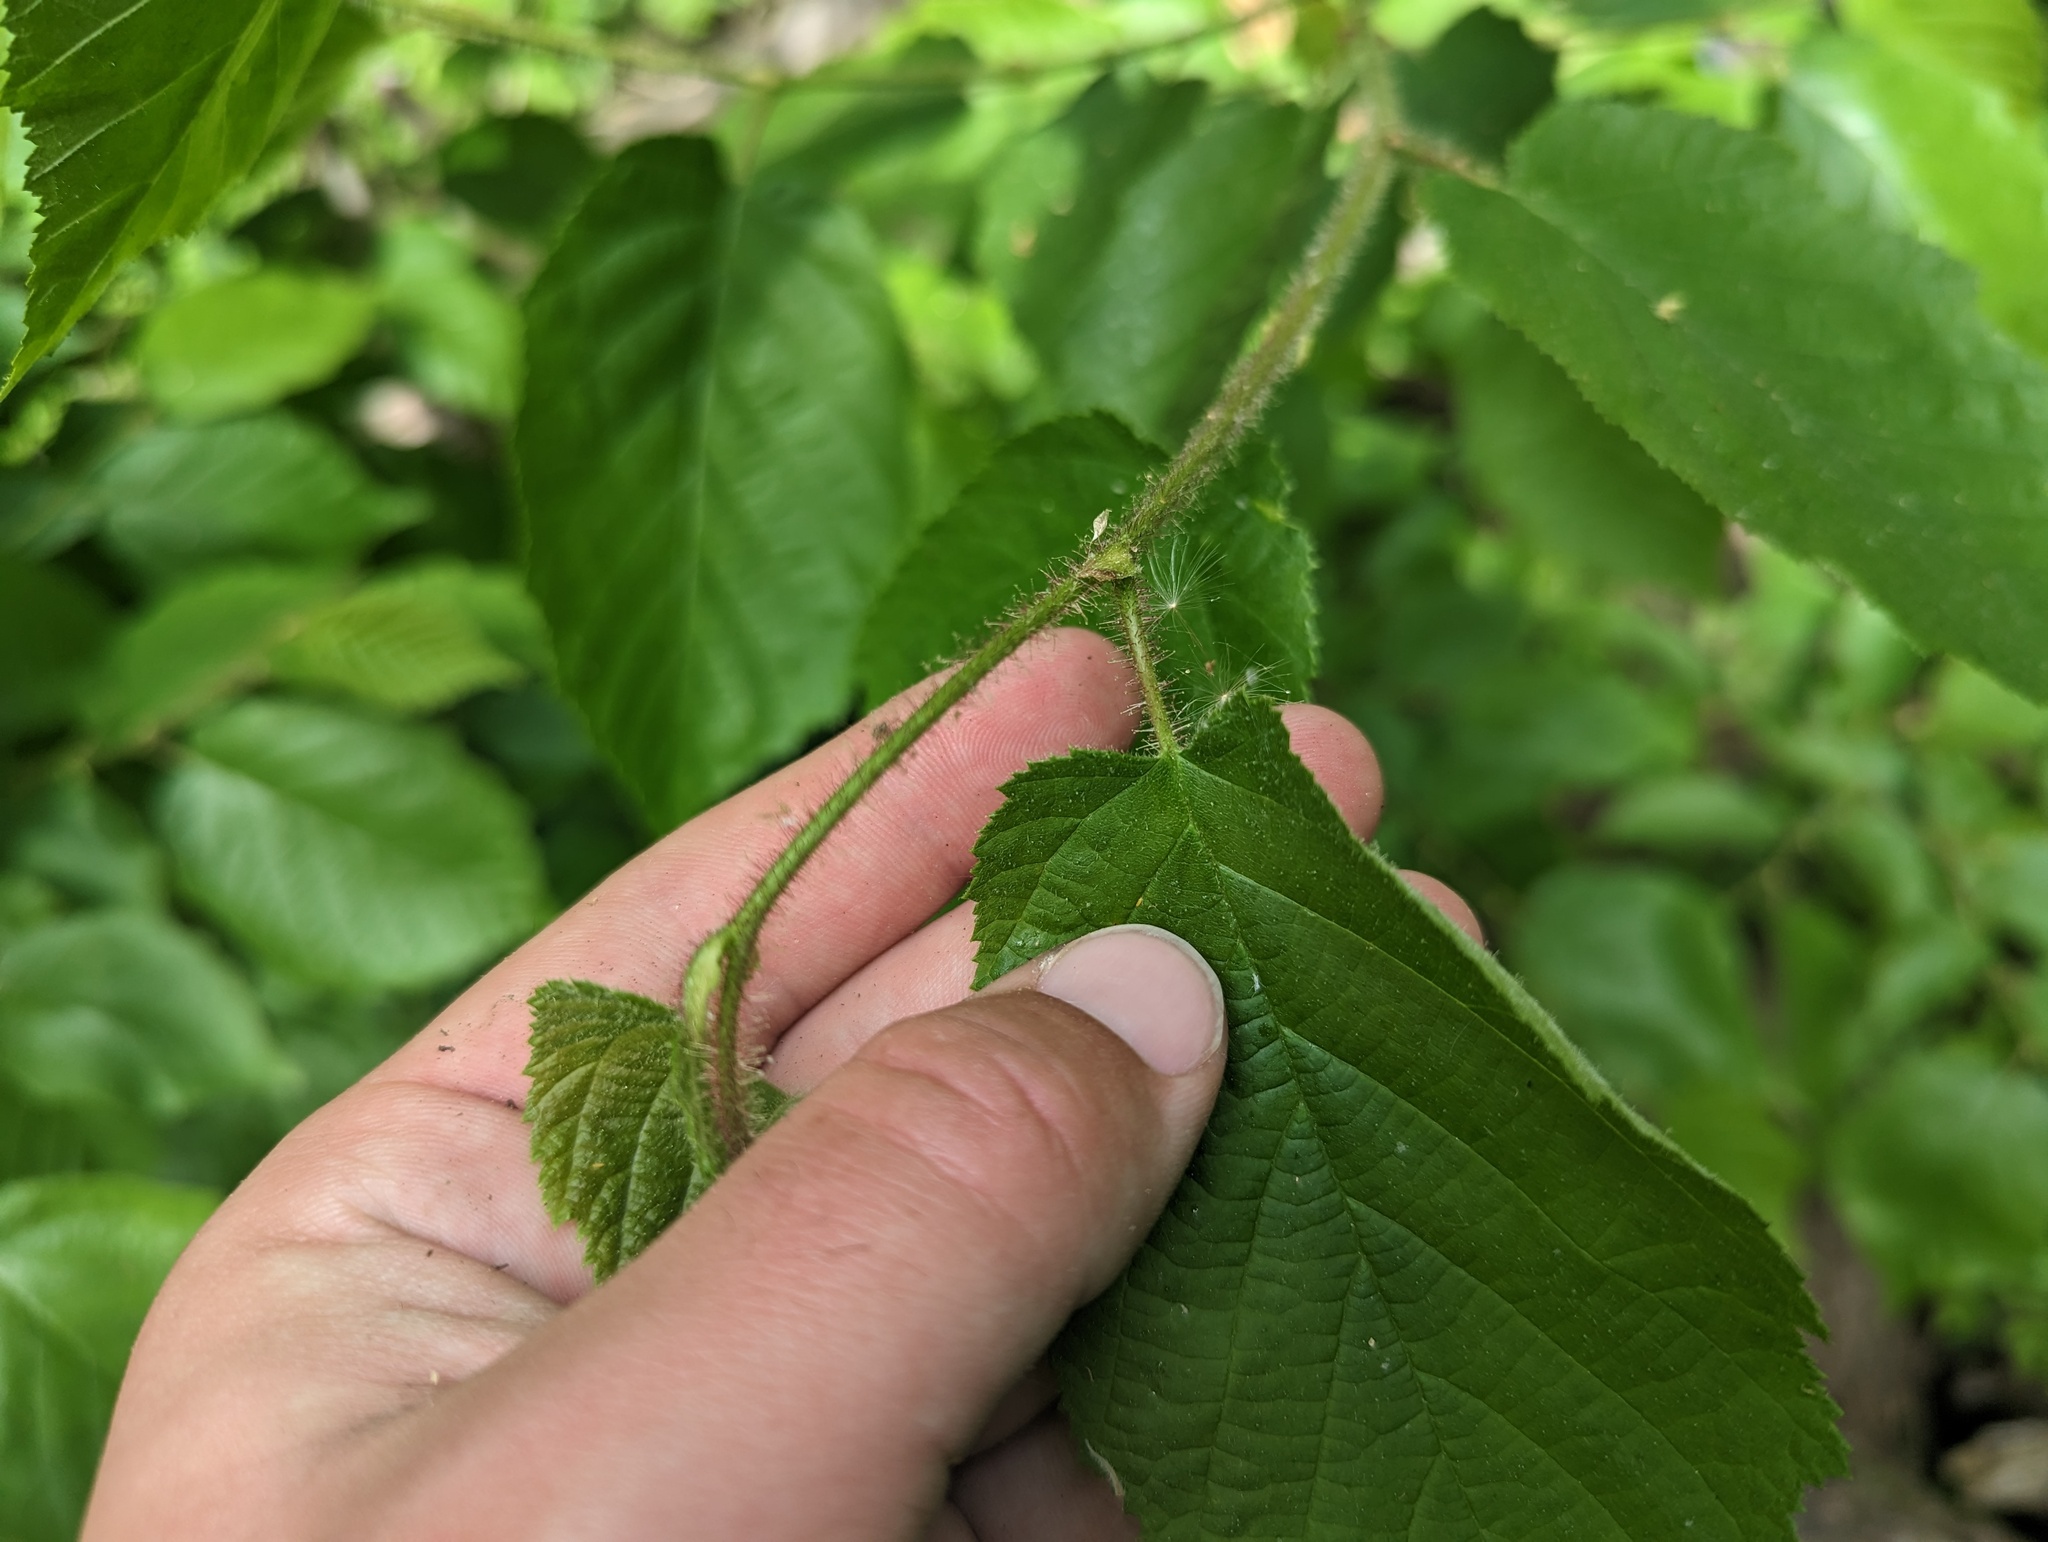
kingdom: Plantae
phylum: Tracheophyta
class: Magnoliopsida
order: Fagales
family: Betulaceae
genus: Corylus
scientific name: Corylus americana
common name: American hazel
